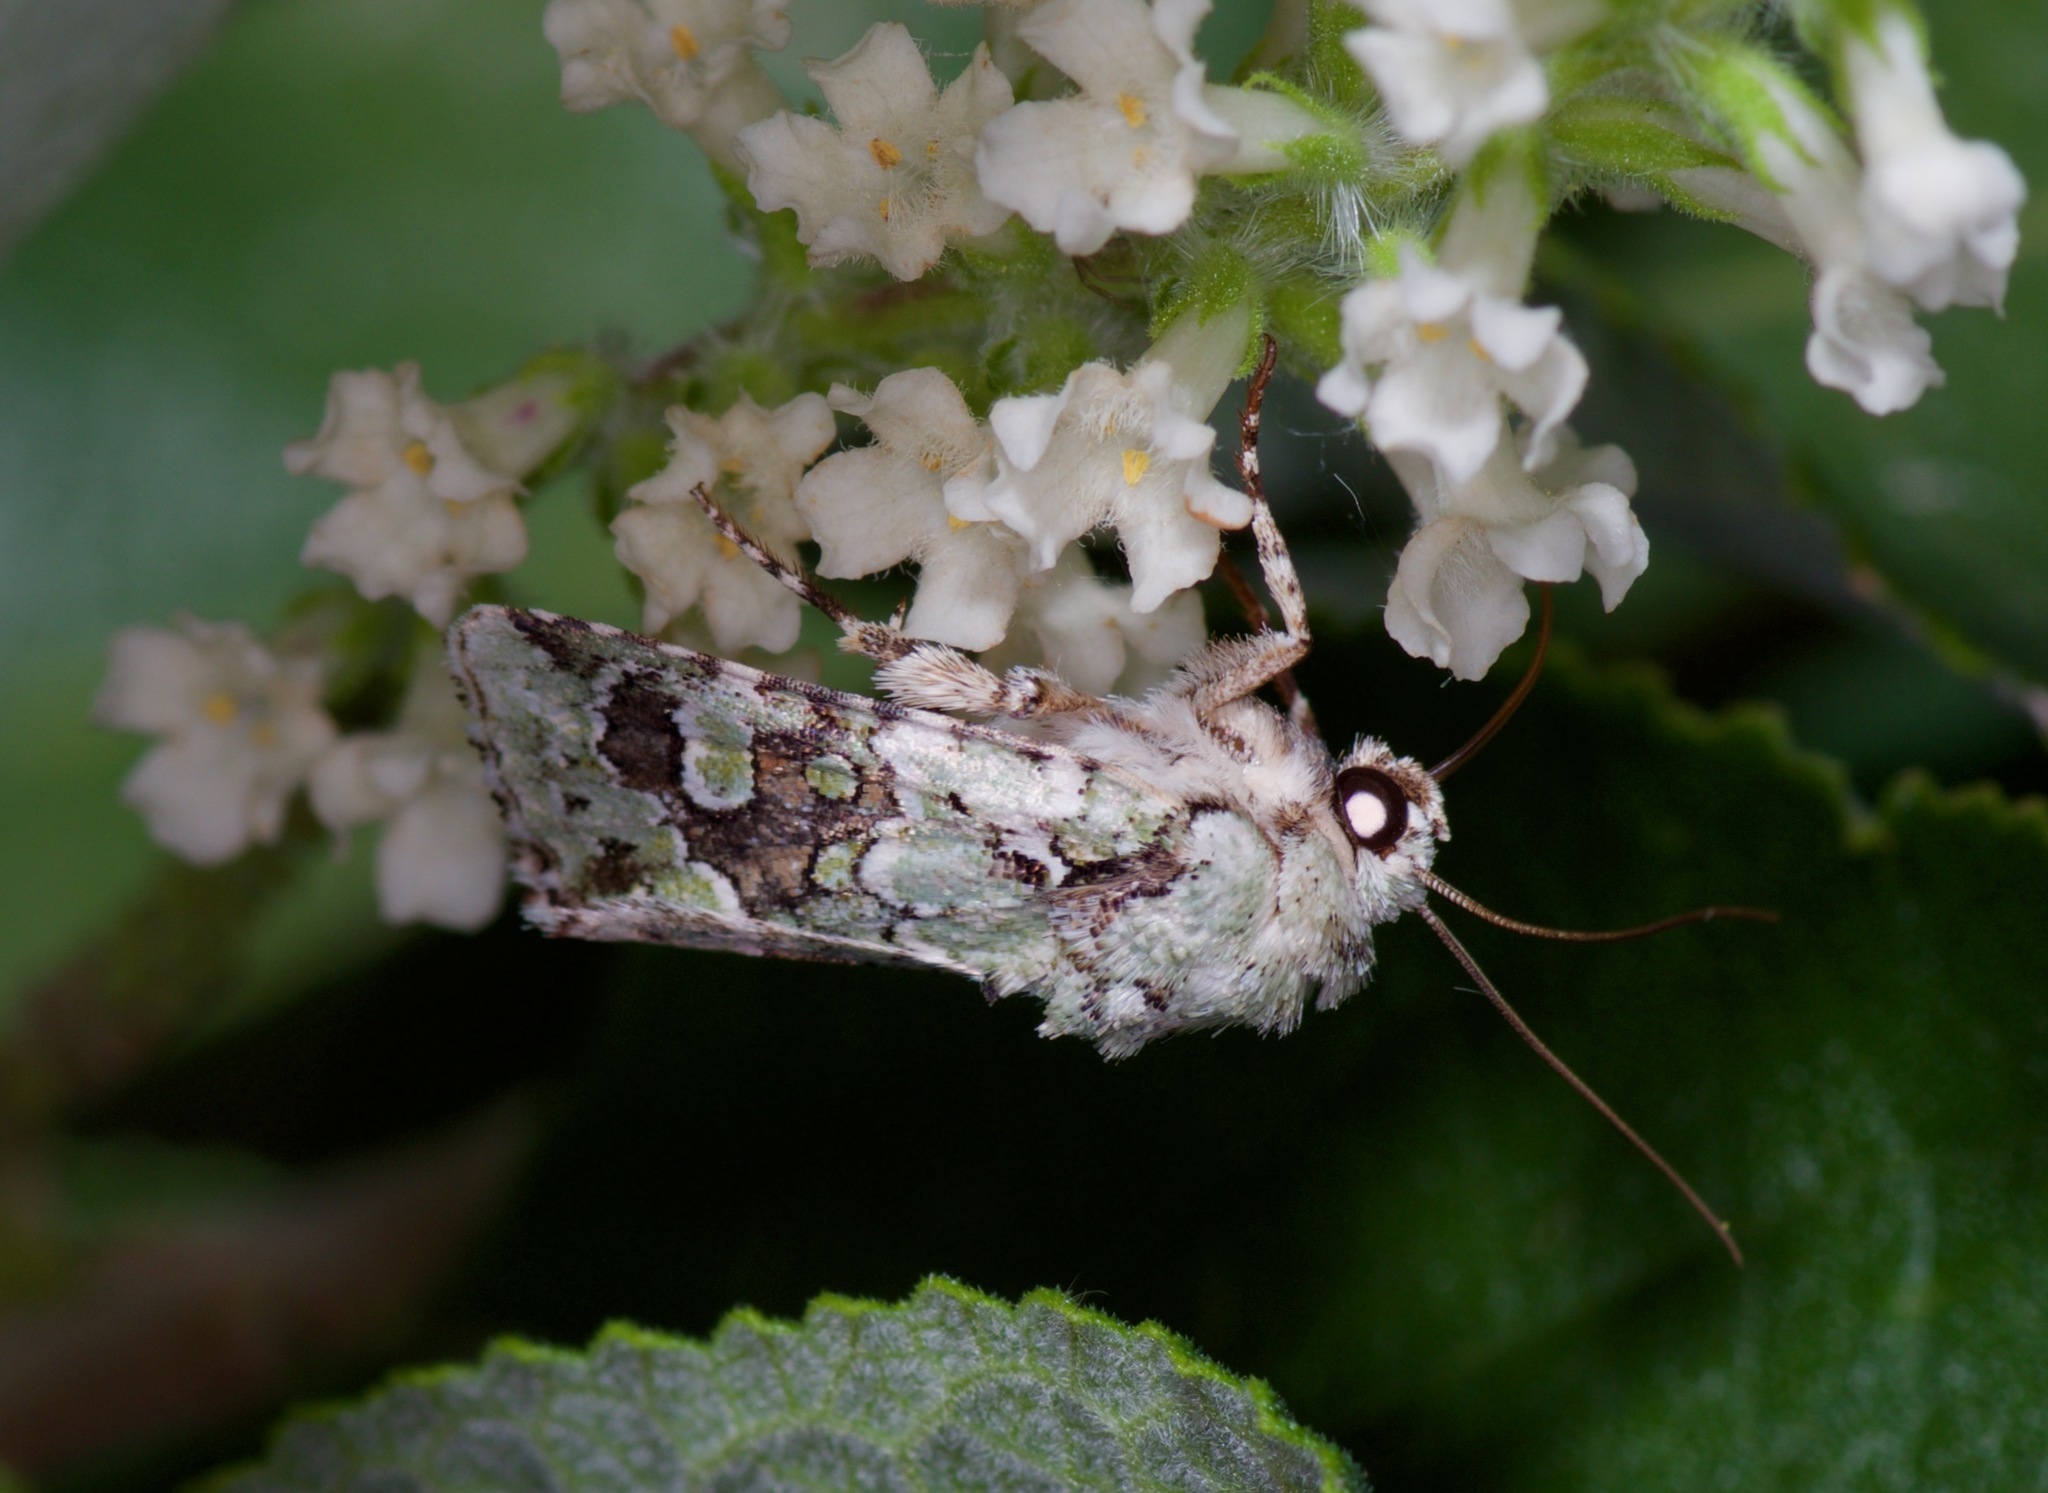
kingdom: Animalia
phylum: Arthropoda
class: Insecta
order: Lepidoptera
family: Noctuidae
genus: Lacinipolia
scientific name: Lacinipolia laudabilis
